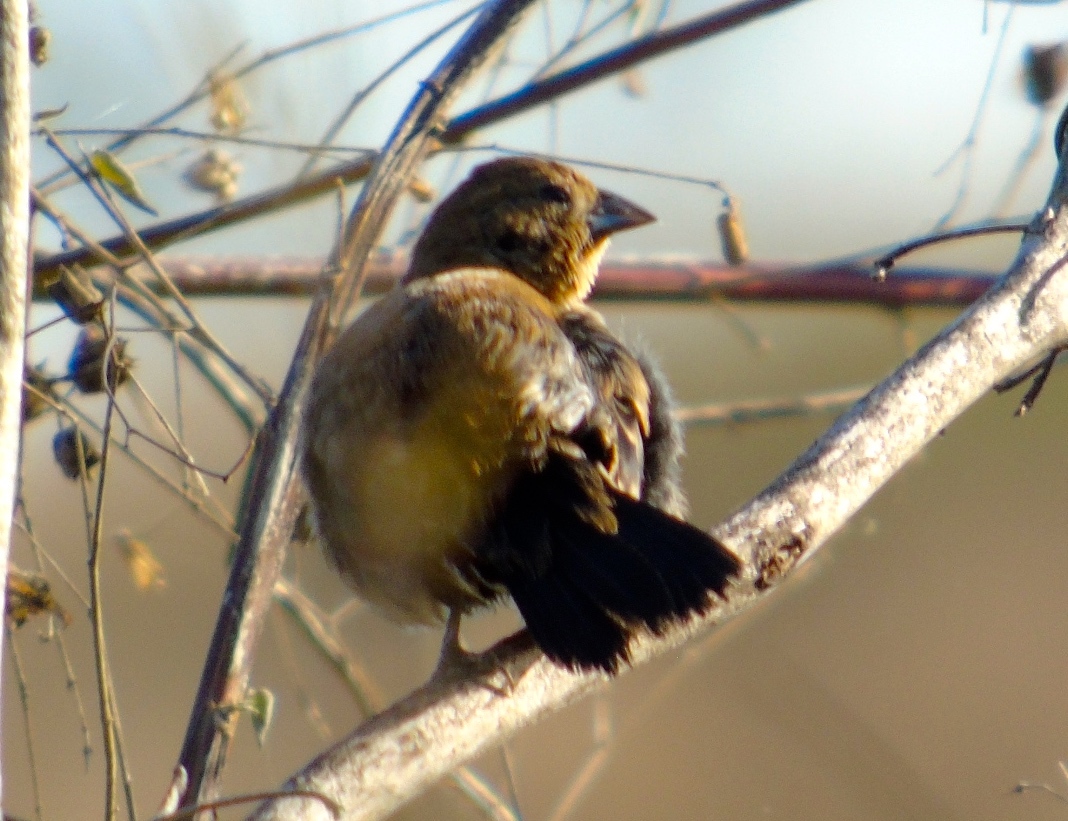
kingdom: Animalia
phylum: Chordata
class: Aves
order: Passeriformes
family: Thraupidae
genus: Volatinia
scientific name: Volatinia jacarina
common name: Blue-black grassquit
